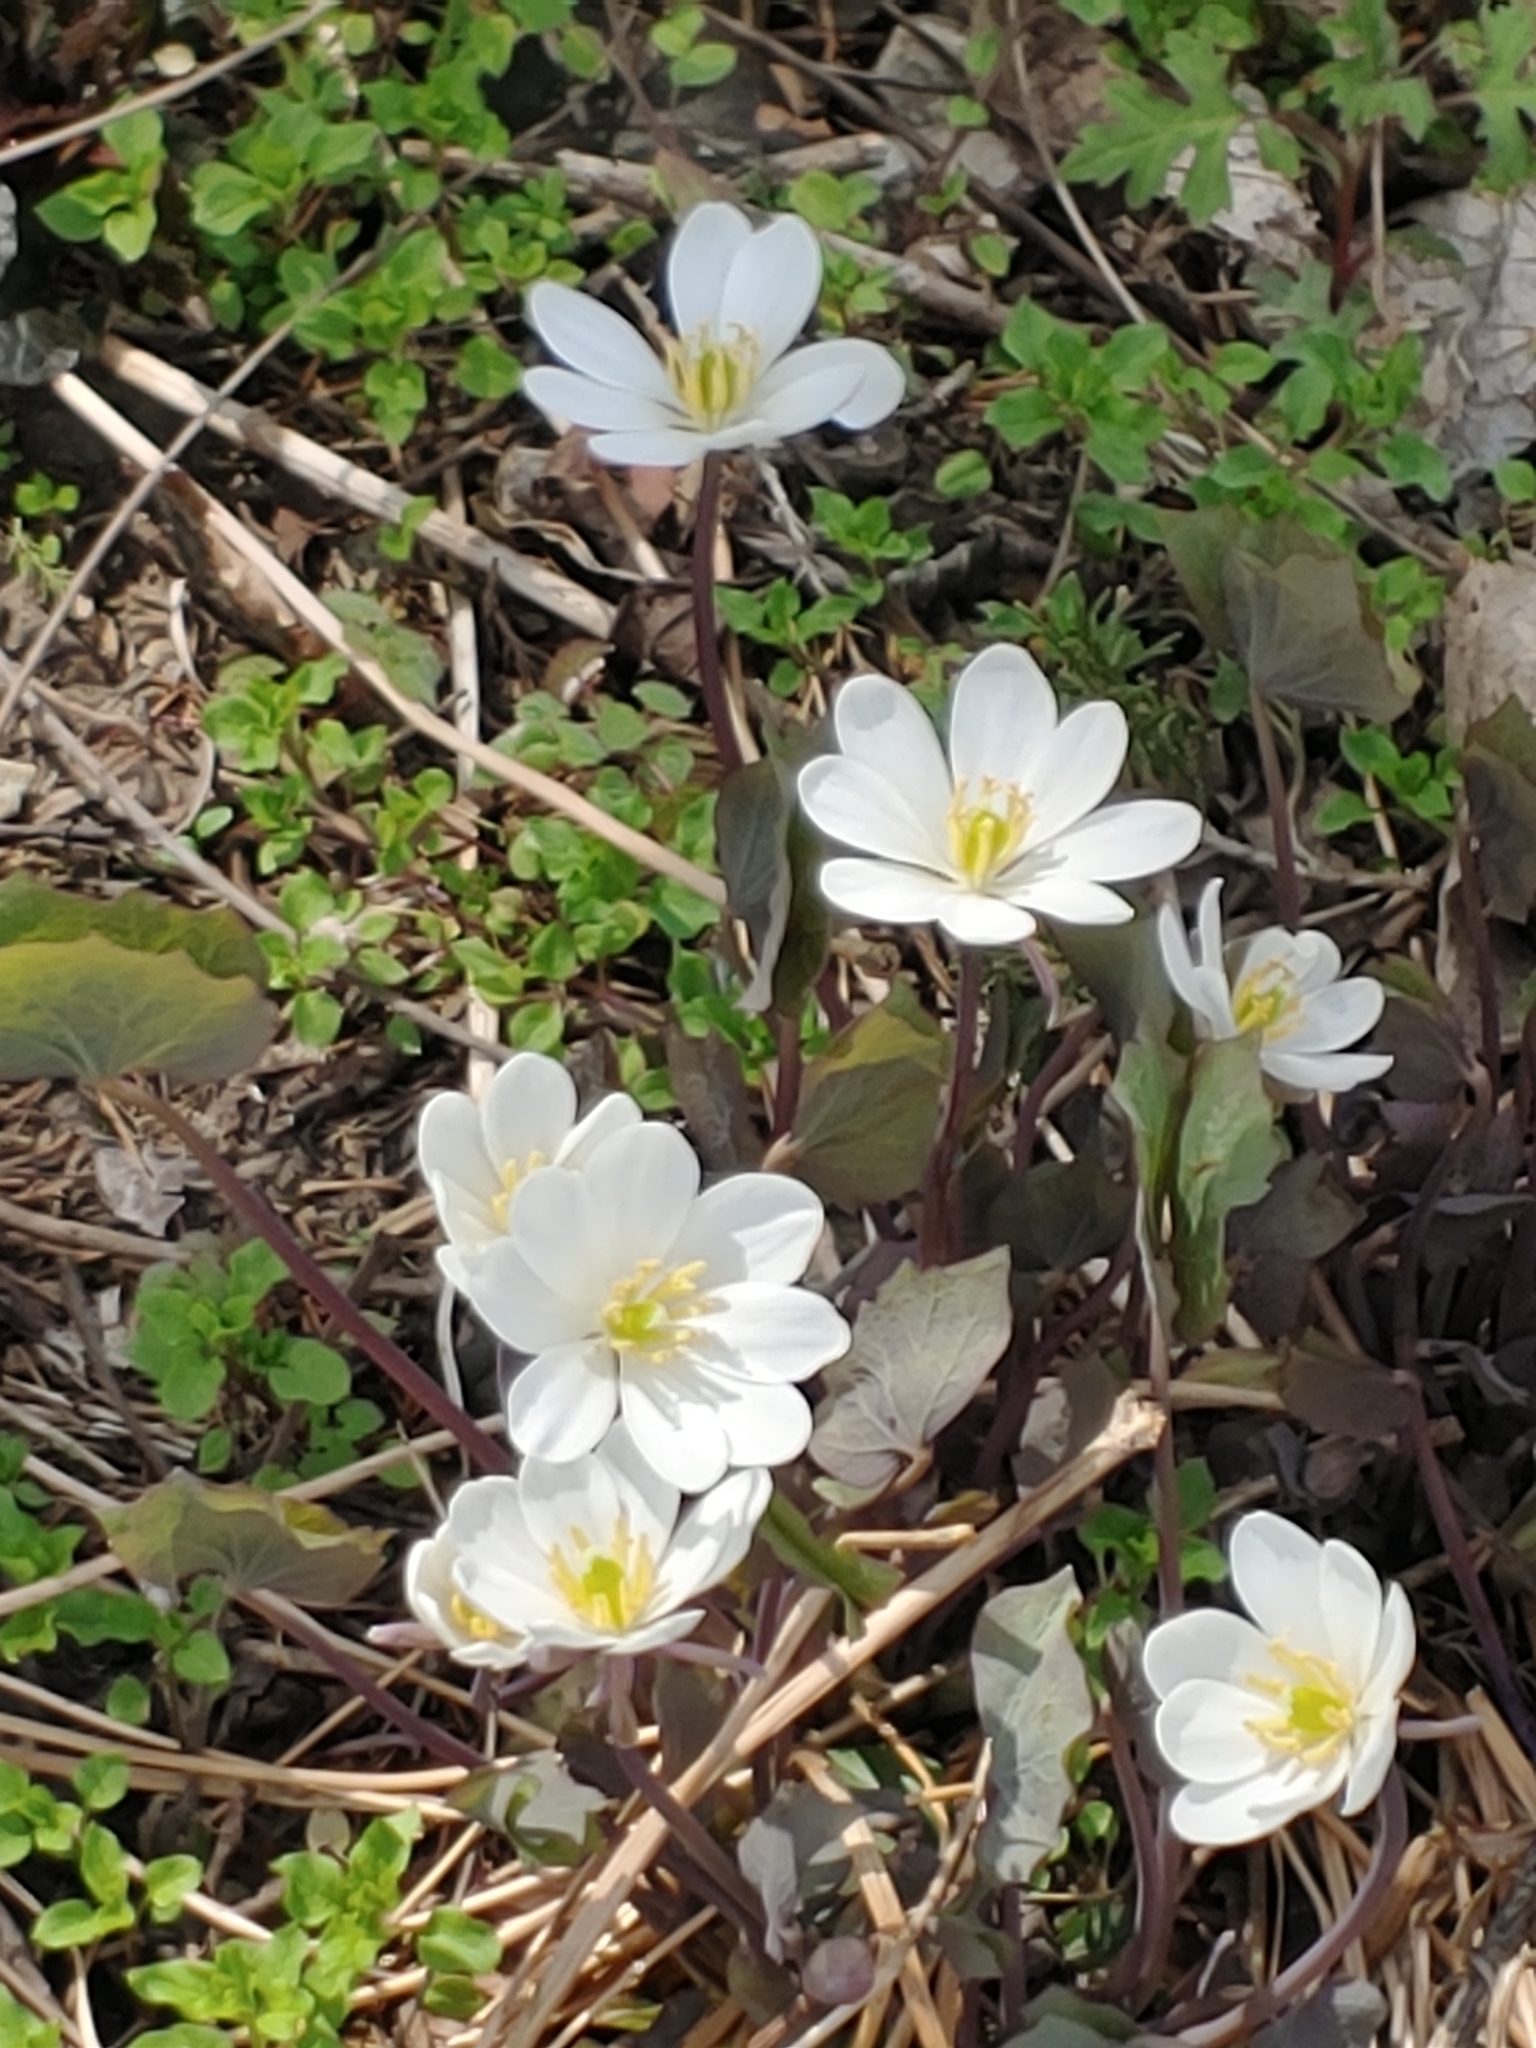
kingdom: Plantae
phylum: Tracheophyta
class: Magnoliopsida
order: Ranunculales
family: Berberidaceae
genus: Jeffersonia
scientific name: Jeffersonia diphylla
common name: Rheumatism-root
